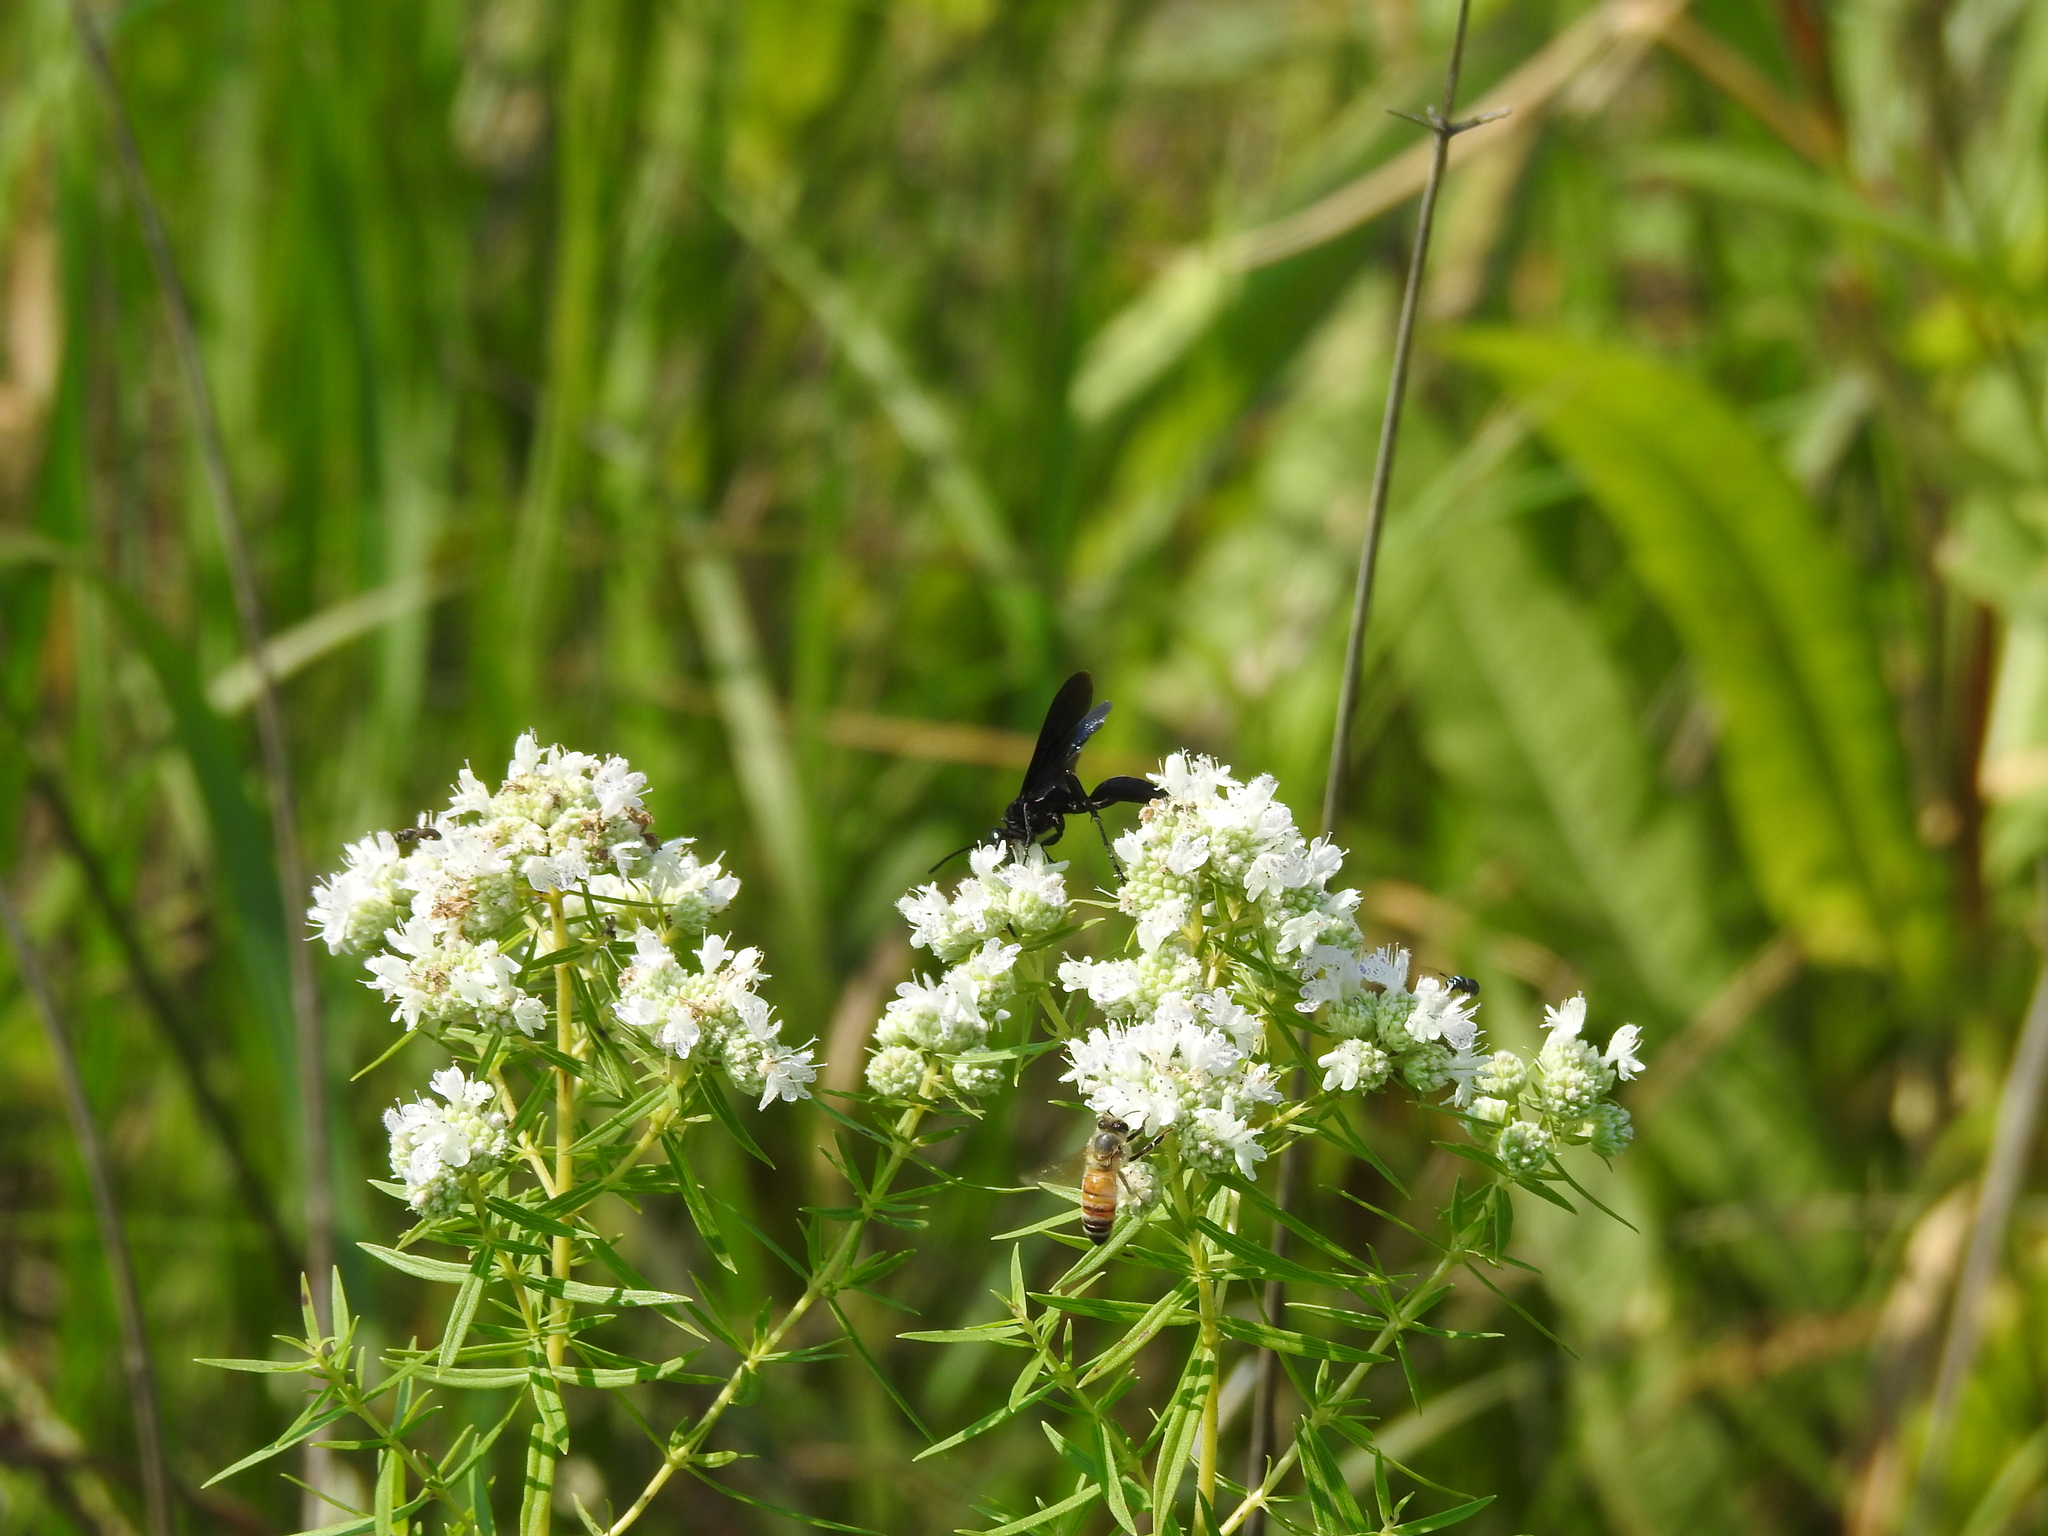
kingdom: Plantae
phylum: Tracheophyta
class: Magnoliopsida
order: Lamiales
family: Lamiaceae
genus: Pycnanthemum
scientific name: Pycnanthemum tenuifolium
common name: Narrow-leaf mountain-mint
